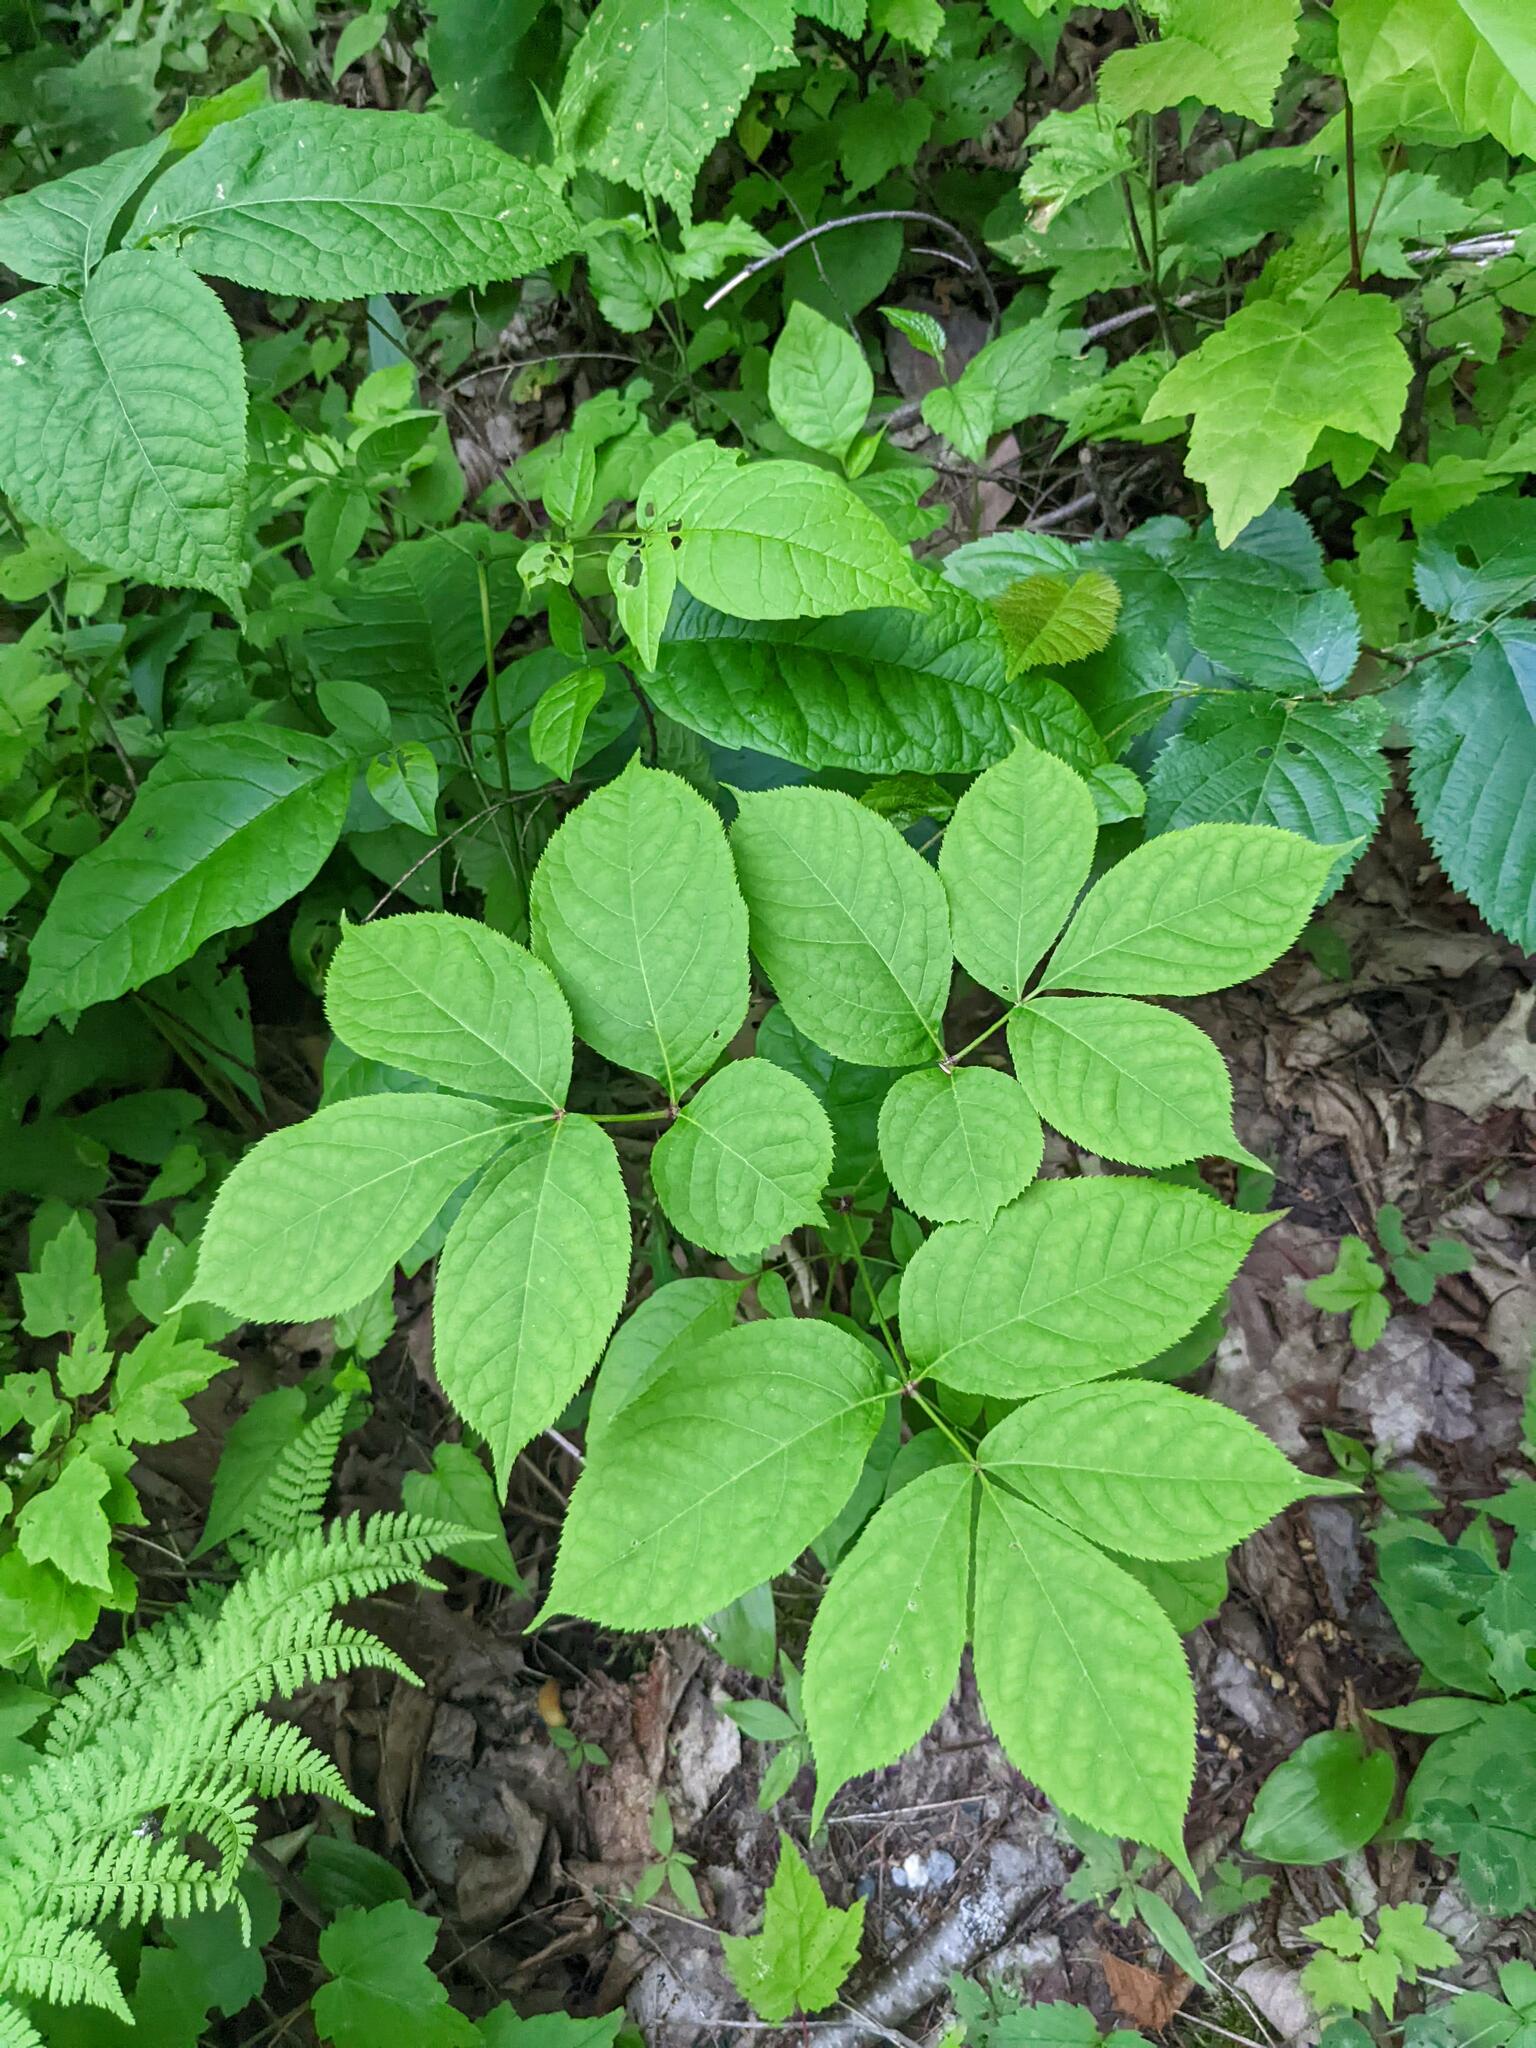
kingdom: Plantae
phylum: Tracheophyta
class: Magnoliopsida
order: Apiales
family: Araliaceae
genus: Aralia
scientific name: Aralia nudicaulis
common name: Wild sarsaparilla
